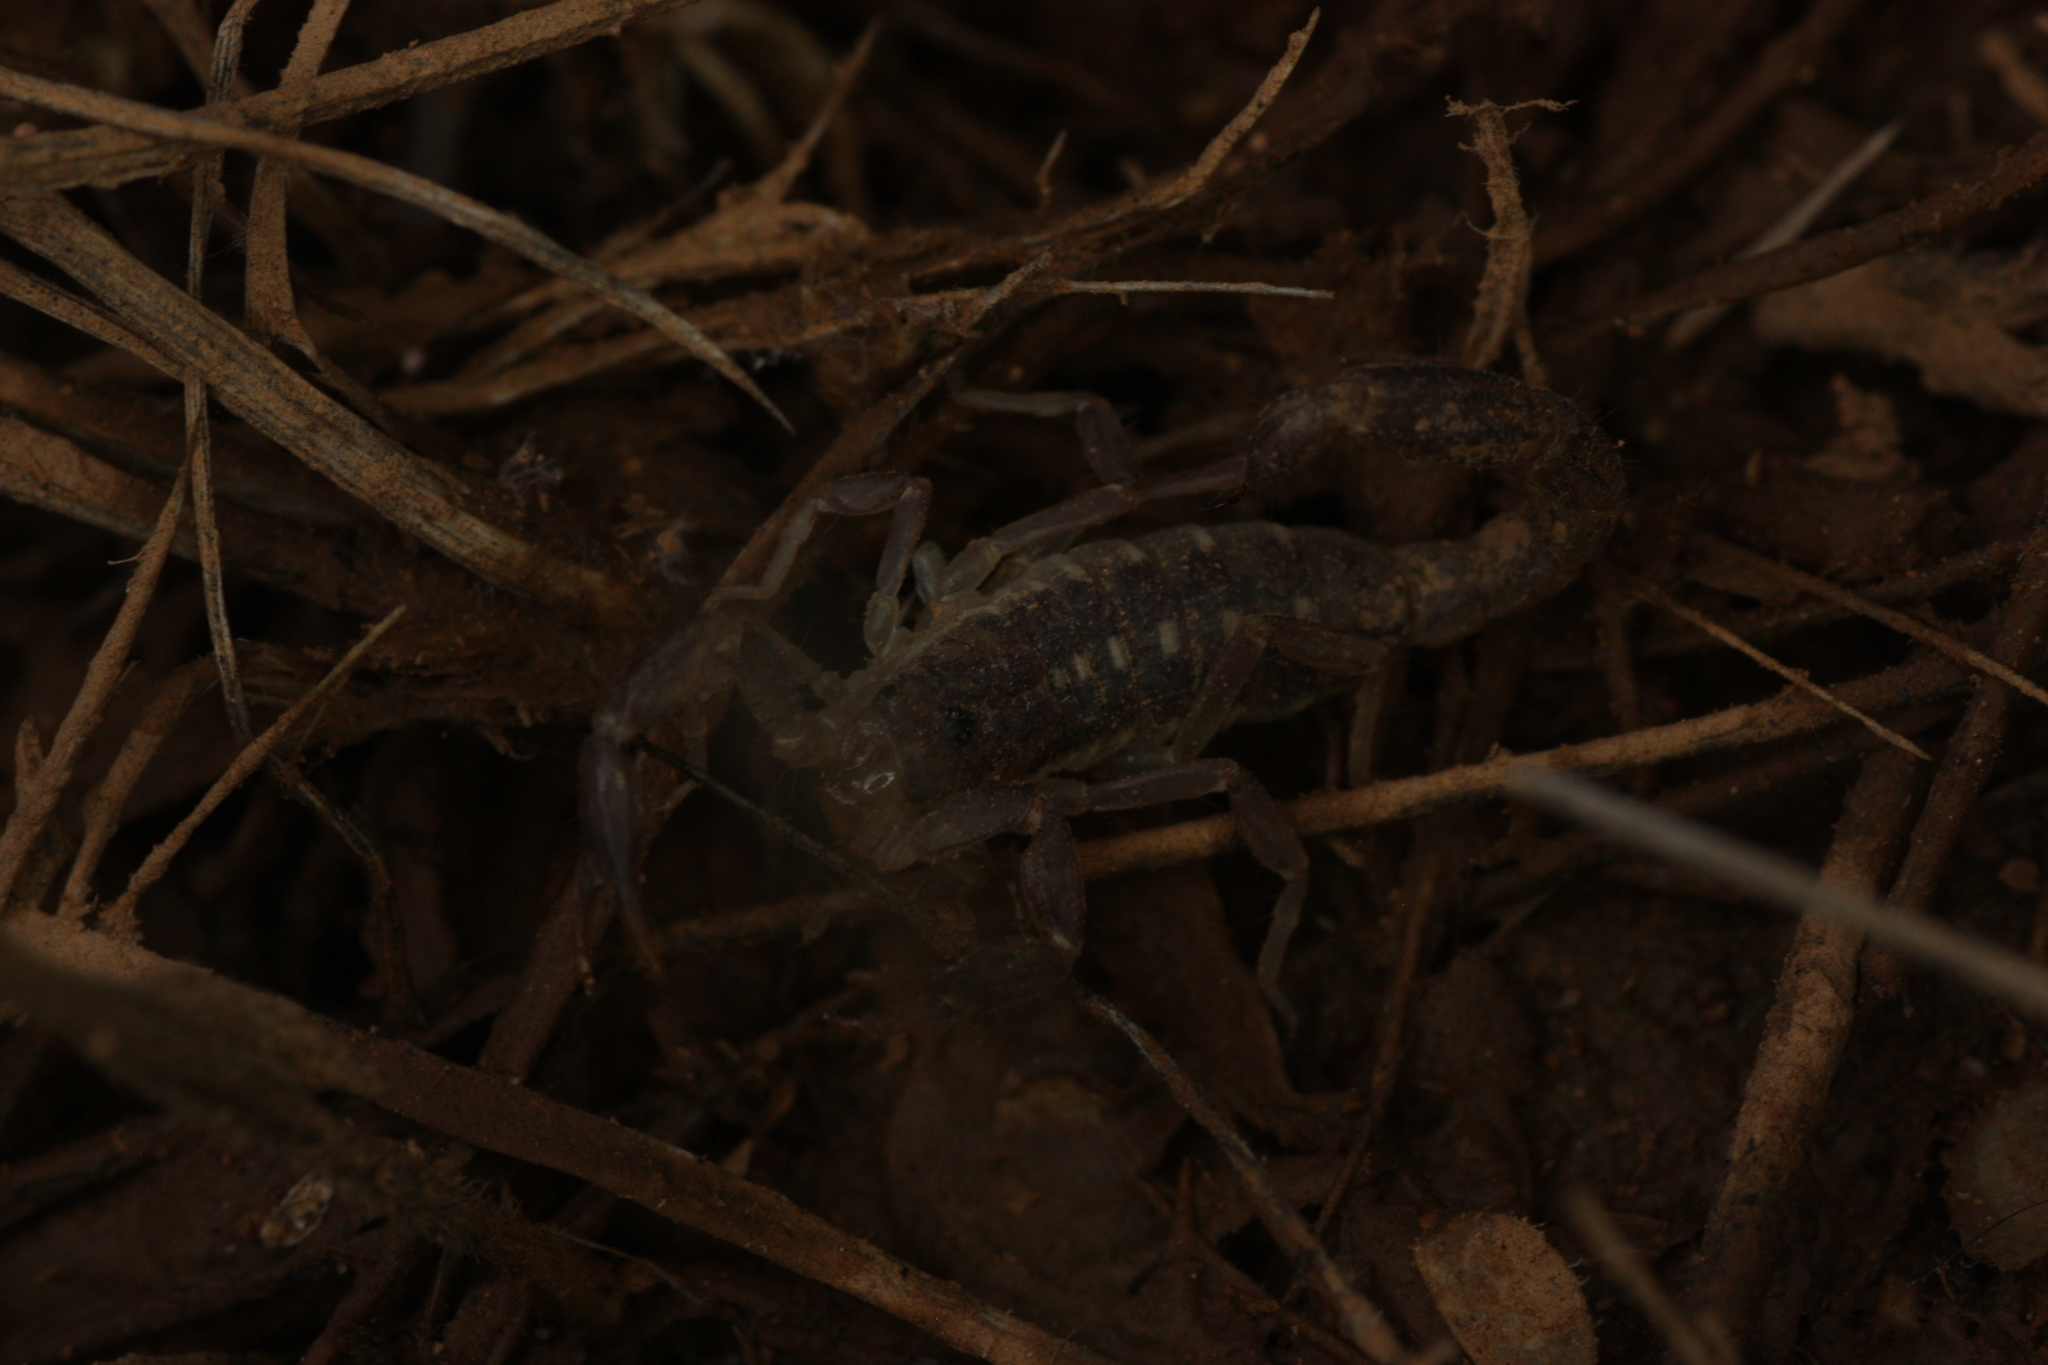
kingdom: Animalia
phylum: Arthropoda
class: Arachnida
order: Scorpiones
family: Vaejovidae
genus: Chihuahuanus
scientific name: Chihuahuanus coahuilae
